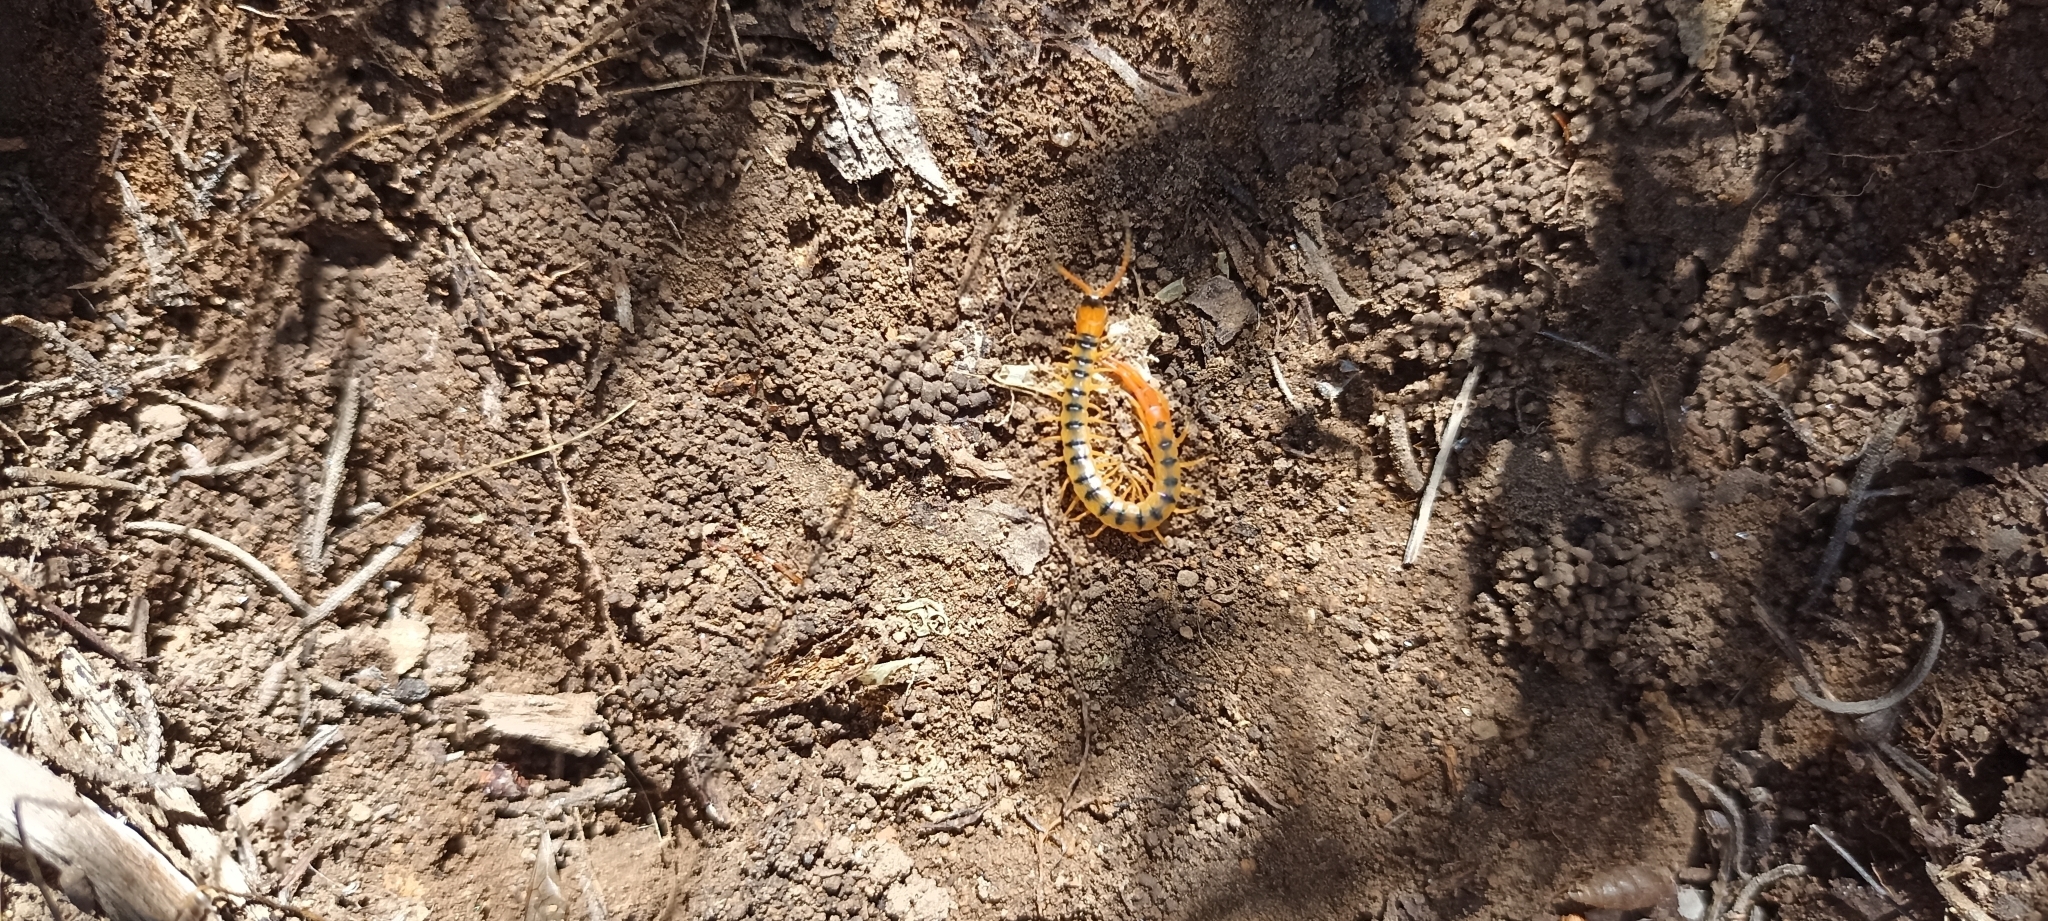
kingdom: Animalia
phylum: Arthropoda
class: Chilopoda
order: Scolopendromorpha
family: Scolopendridae
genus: Scolopendra
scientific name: Scolopendra cingulata
